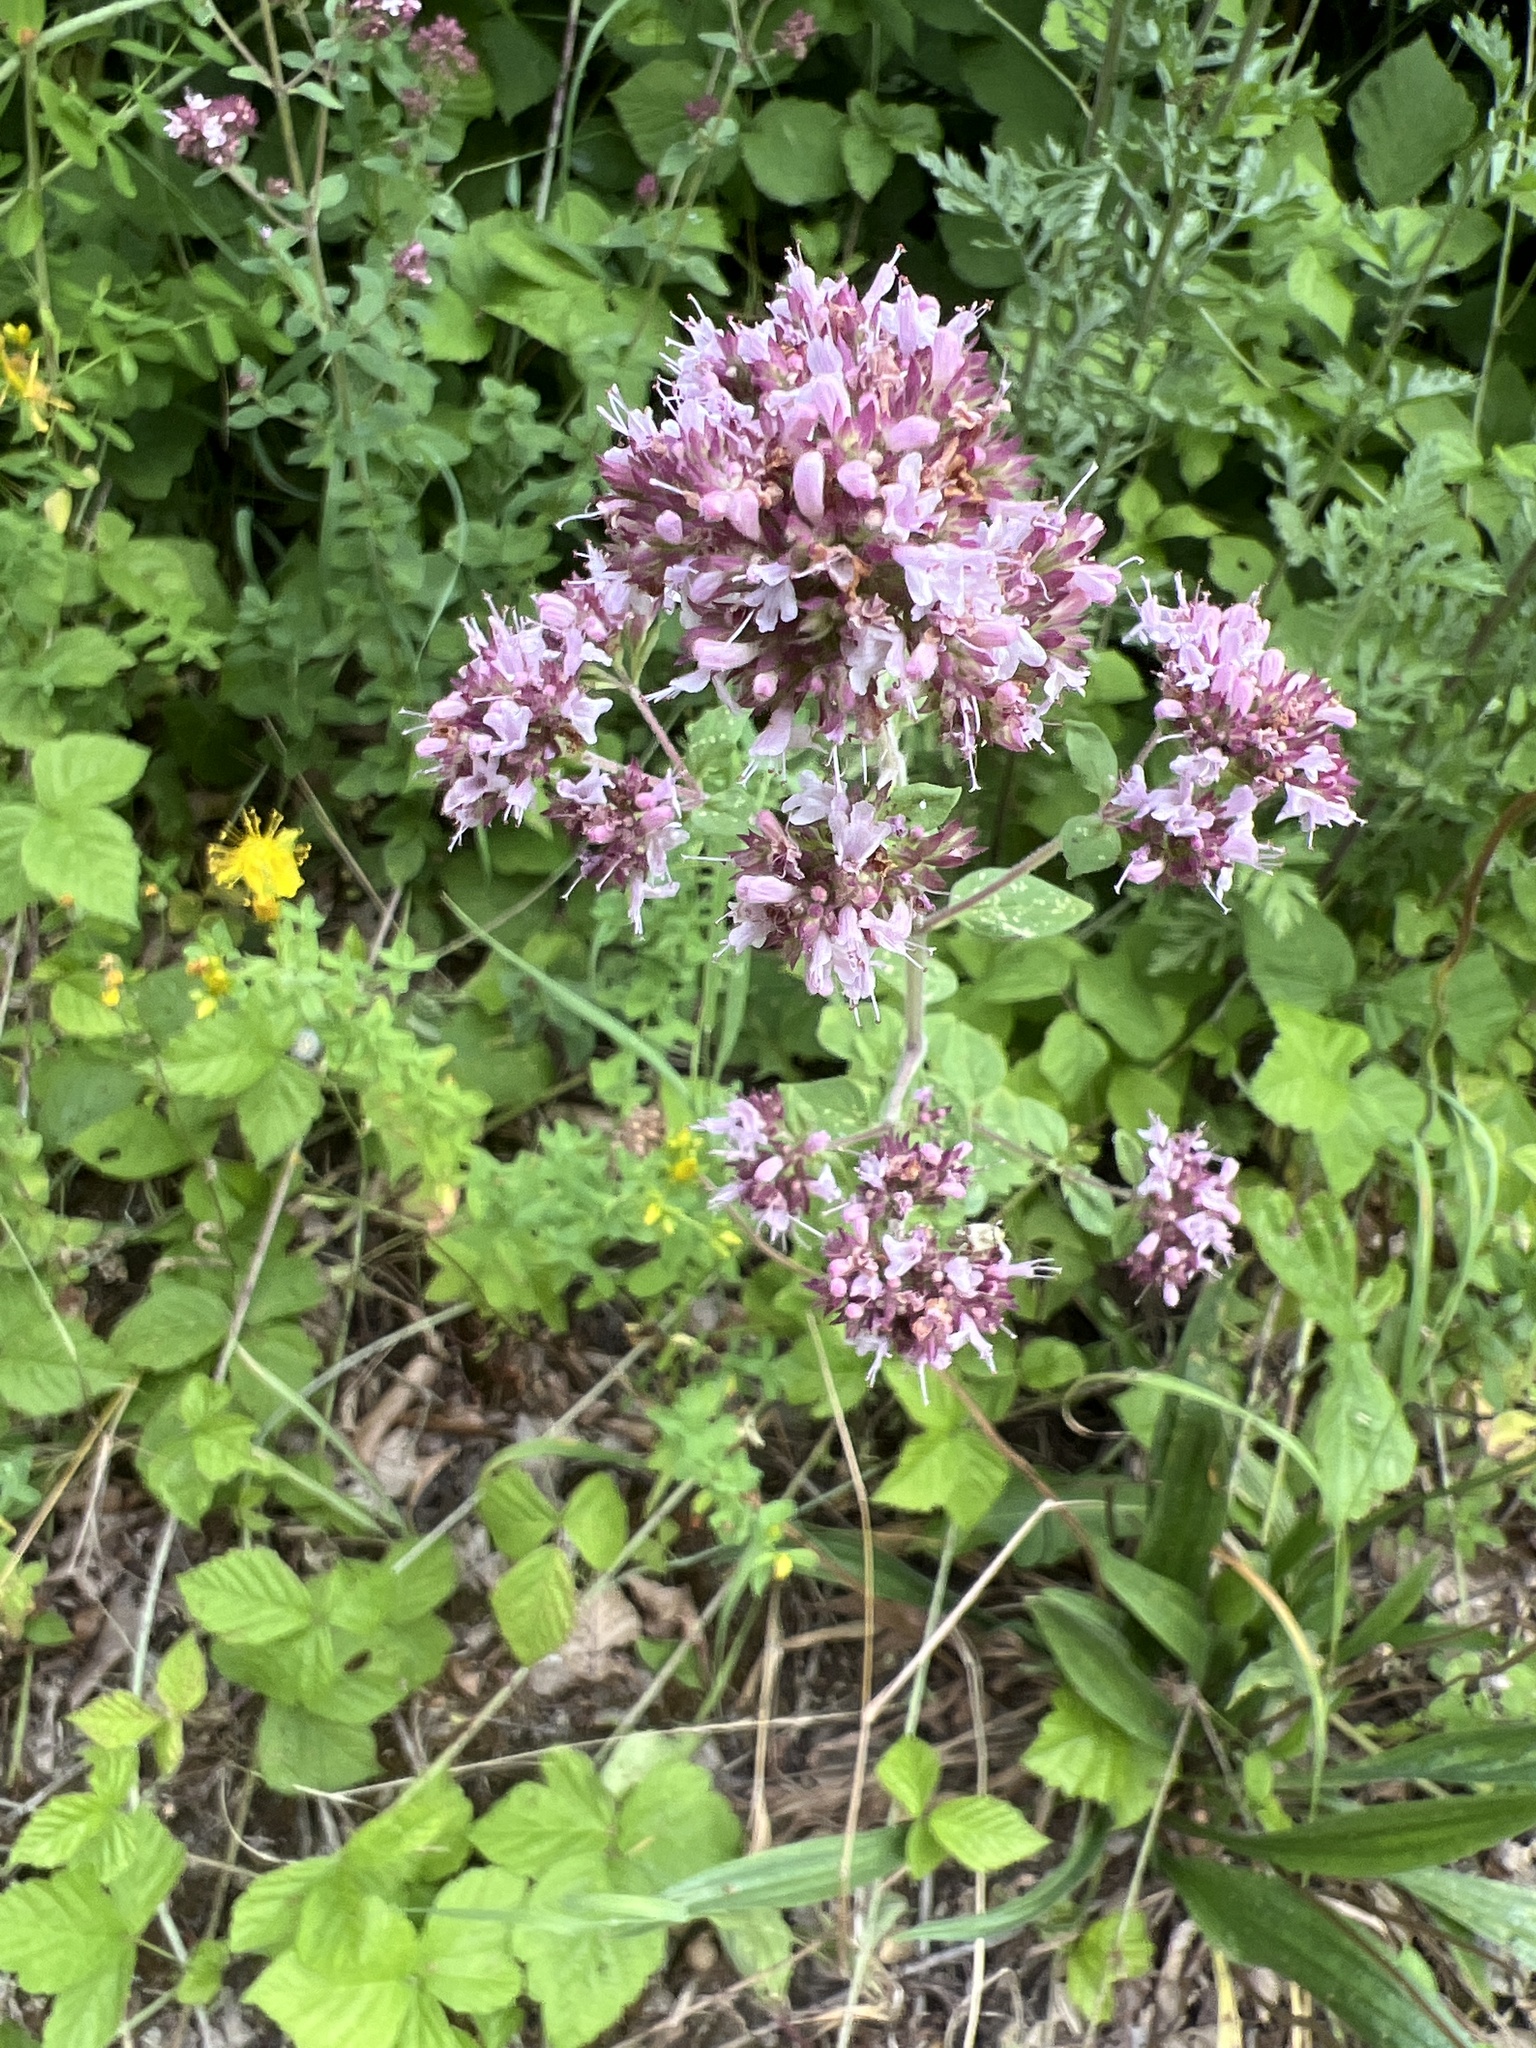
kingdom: Plantae
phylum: Tracheophyta
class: Magnoliopsida
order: Lamiales
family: Lamiaceae
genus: Origanum
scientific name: Origanum vulgare
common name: Wild marjoram
